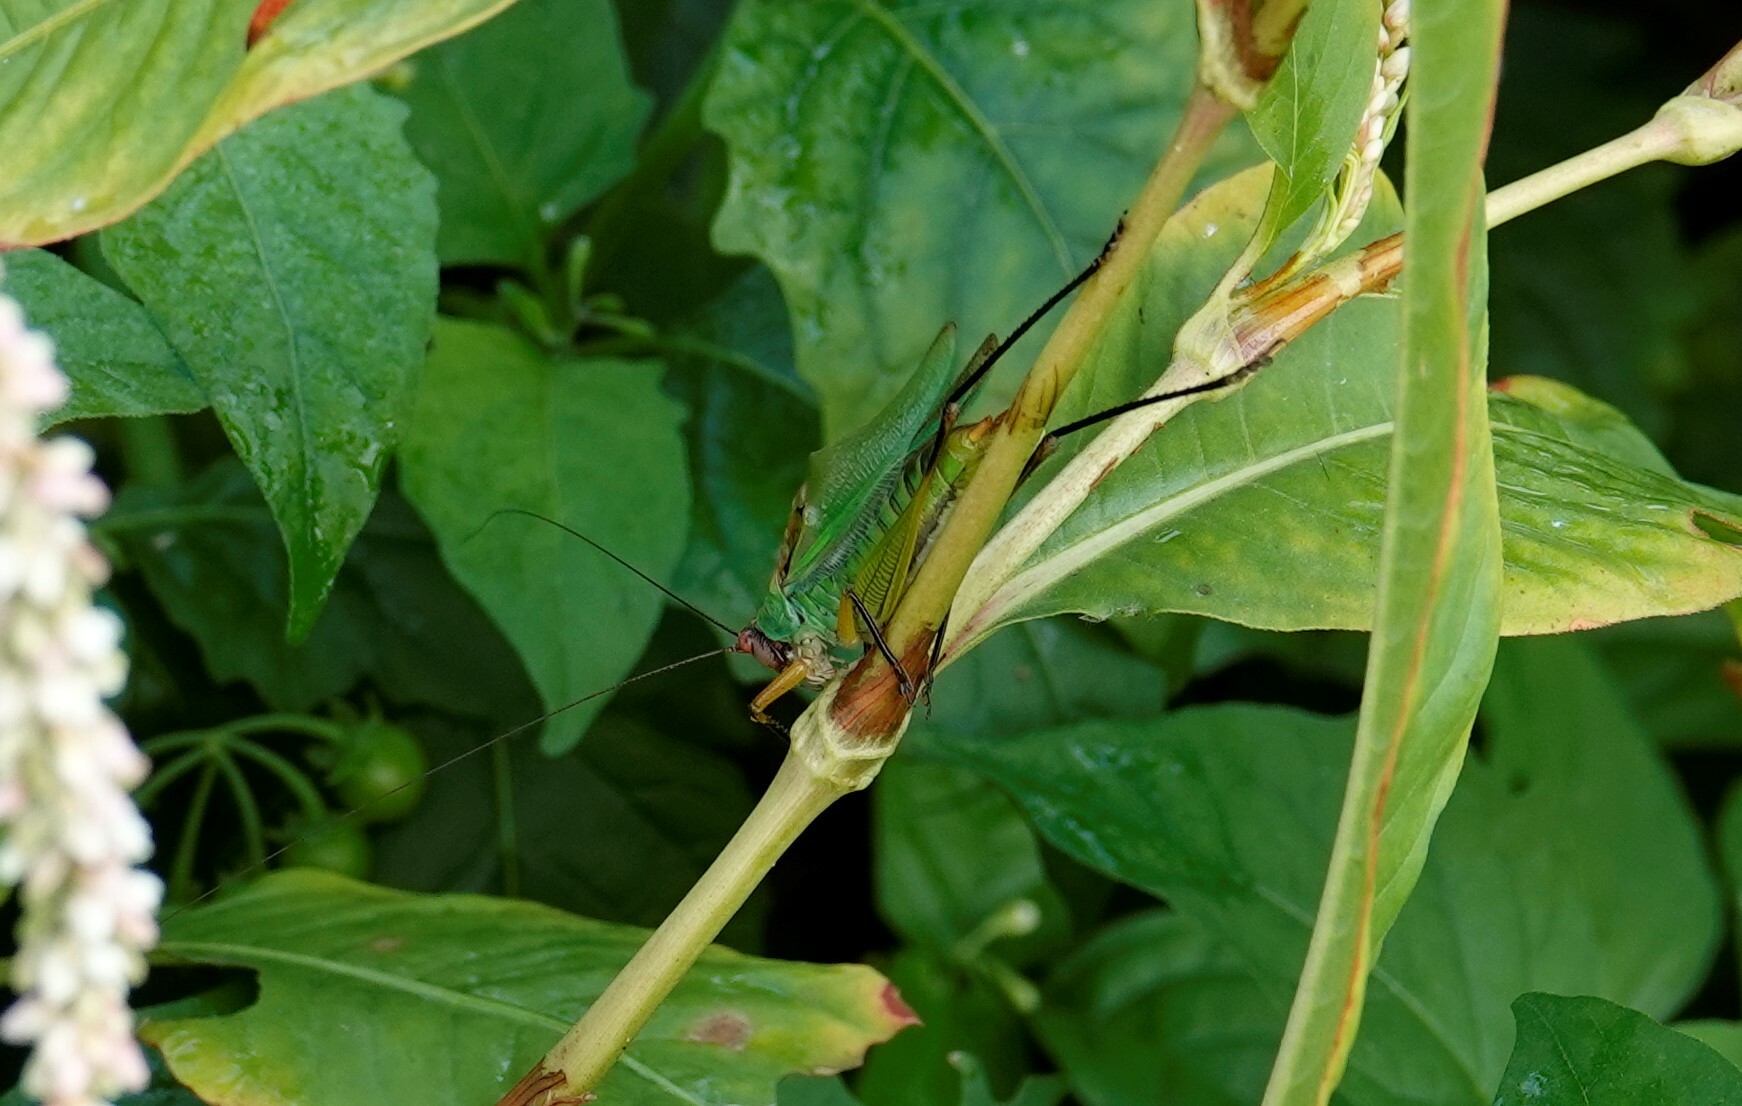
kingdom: Animalia
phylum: Arthropoda
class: Insecta
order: Orthoptera
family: Tettigoniidae
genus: Orchelimum
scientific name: Orchelimum nigripes
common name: Black-legged meadow katydid
